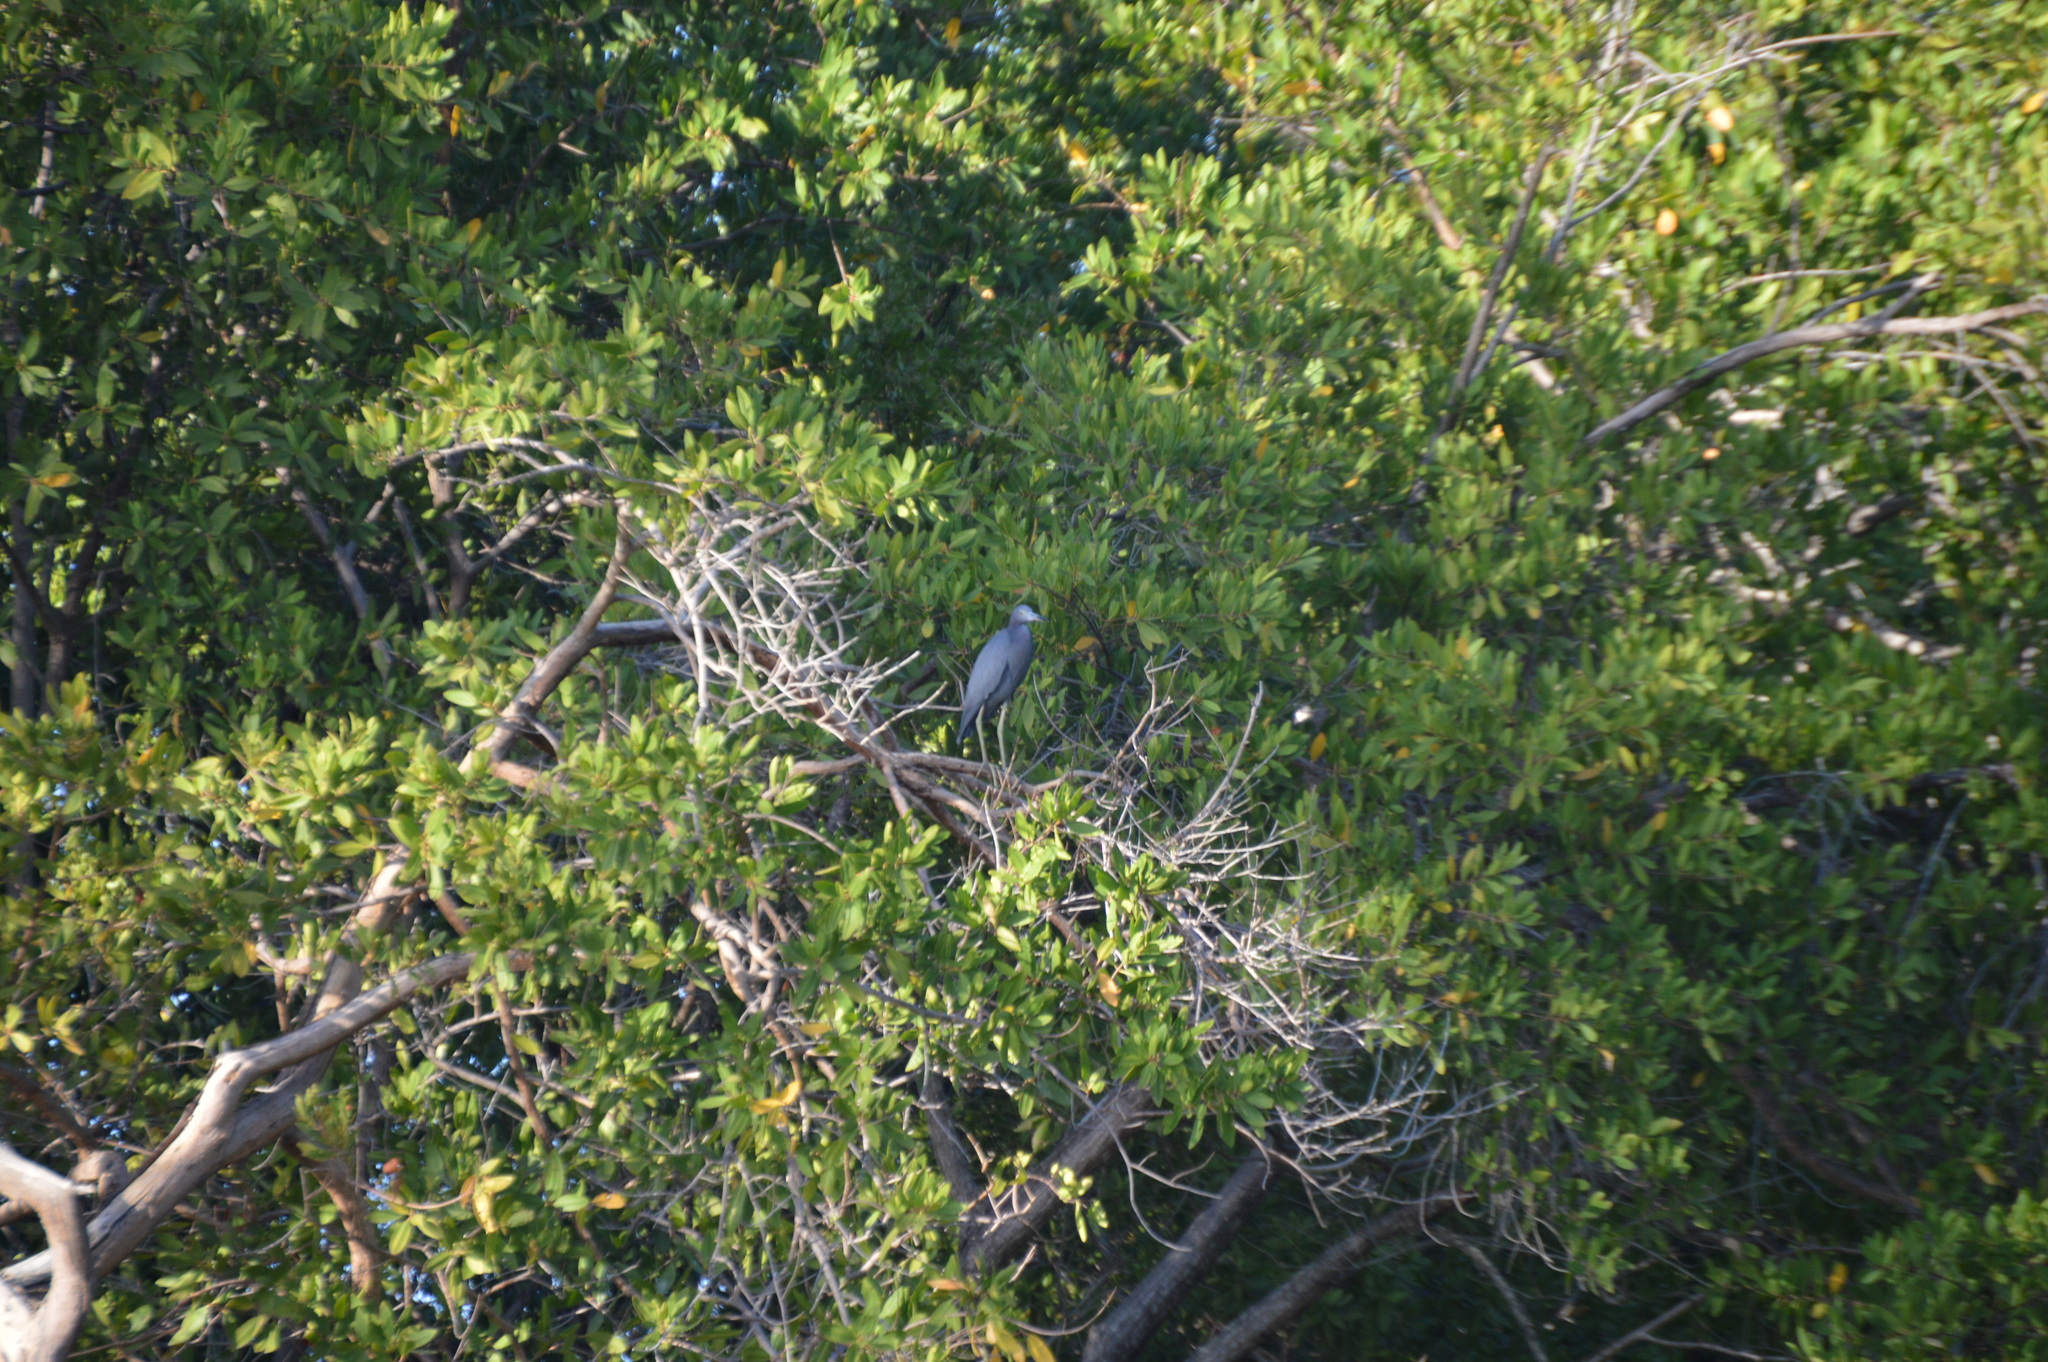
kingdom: Animalia
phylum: Chordata
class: Aves
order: Pelecaniformes
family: Ardeidae
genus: Egretta
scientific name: Egretta caerulea
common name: Little blue heron
